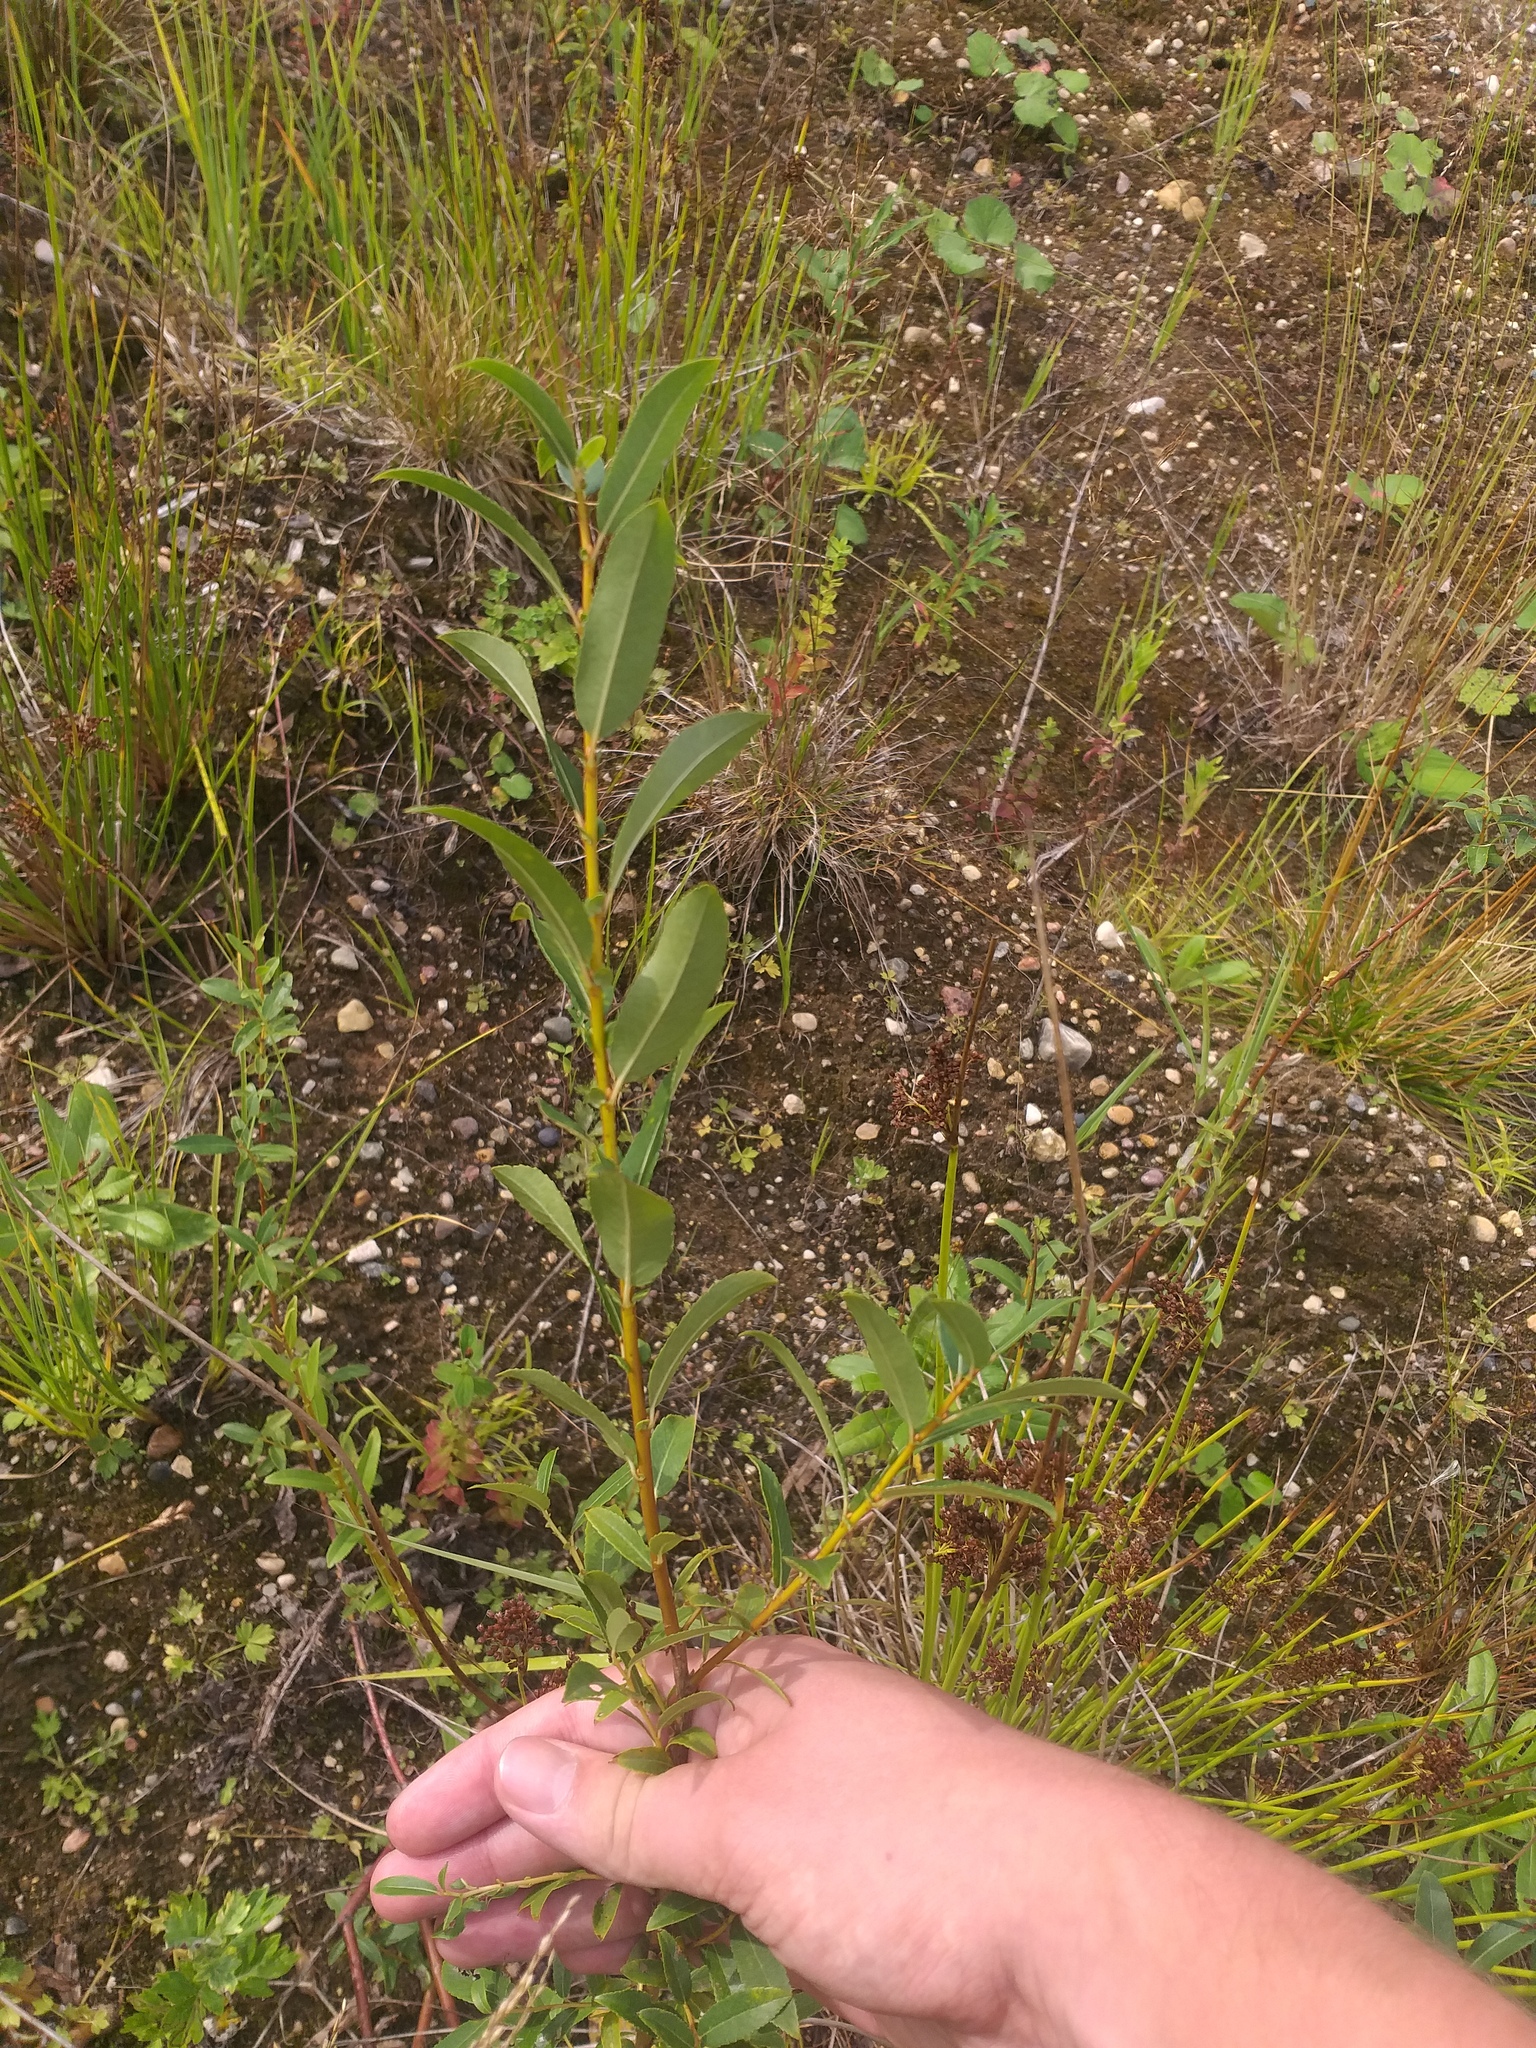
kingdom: Plantae
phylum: Tracheophyta
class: Magnoliopsida
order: Malpighiales
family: Salicaceae
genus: Salix
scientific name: Salix triandra
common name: Almond willow
